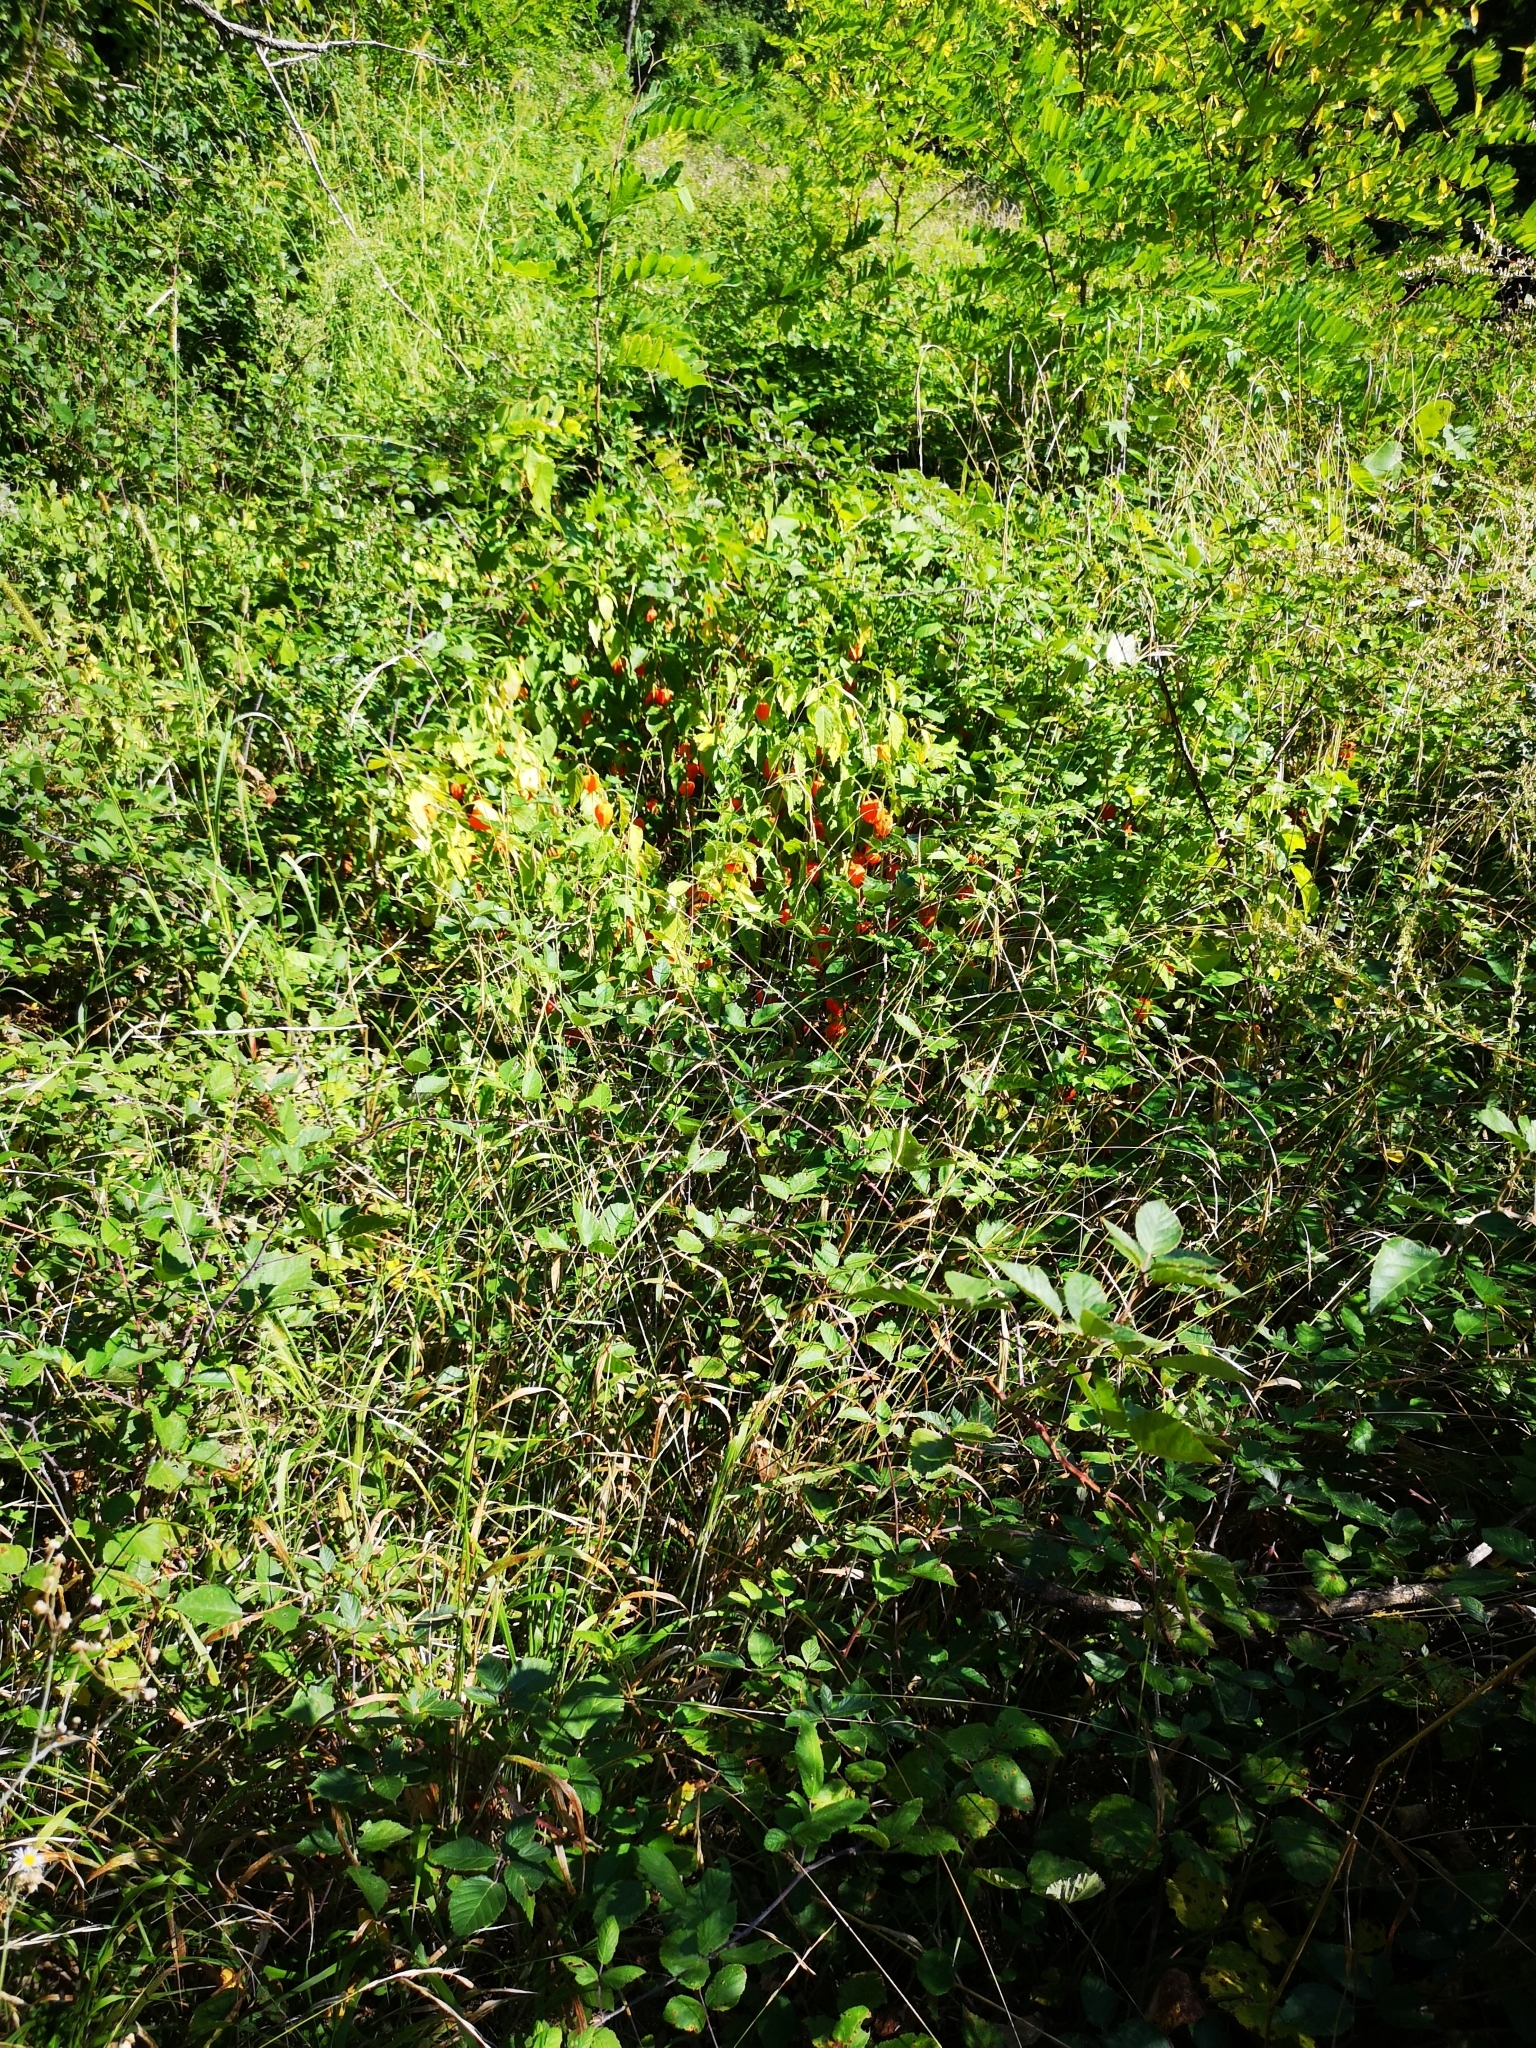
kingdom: Plantae
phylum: Tracheophyta
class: Magnoliopsida
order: Solanales
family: Solanaceae
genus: Alkekengi
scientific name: Alkekengi officinarum
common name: Japanese-lantern
